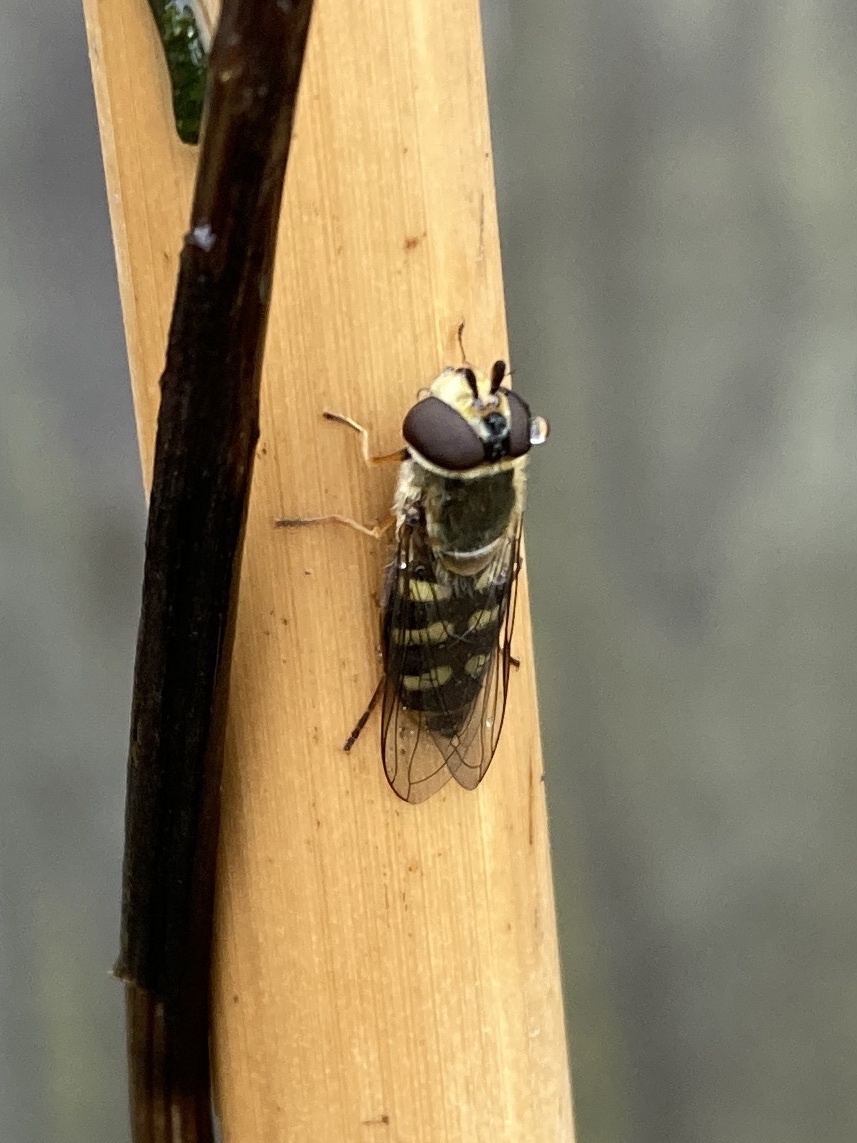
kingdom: Animalia
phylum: Arthropoda
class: Insecta
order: Diptera
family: Syrphidae
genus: Eupeodes
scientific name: Eupeodes
